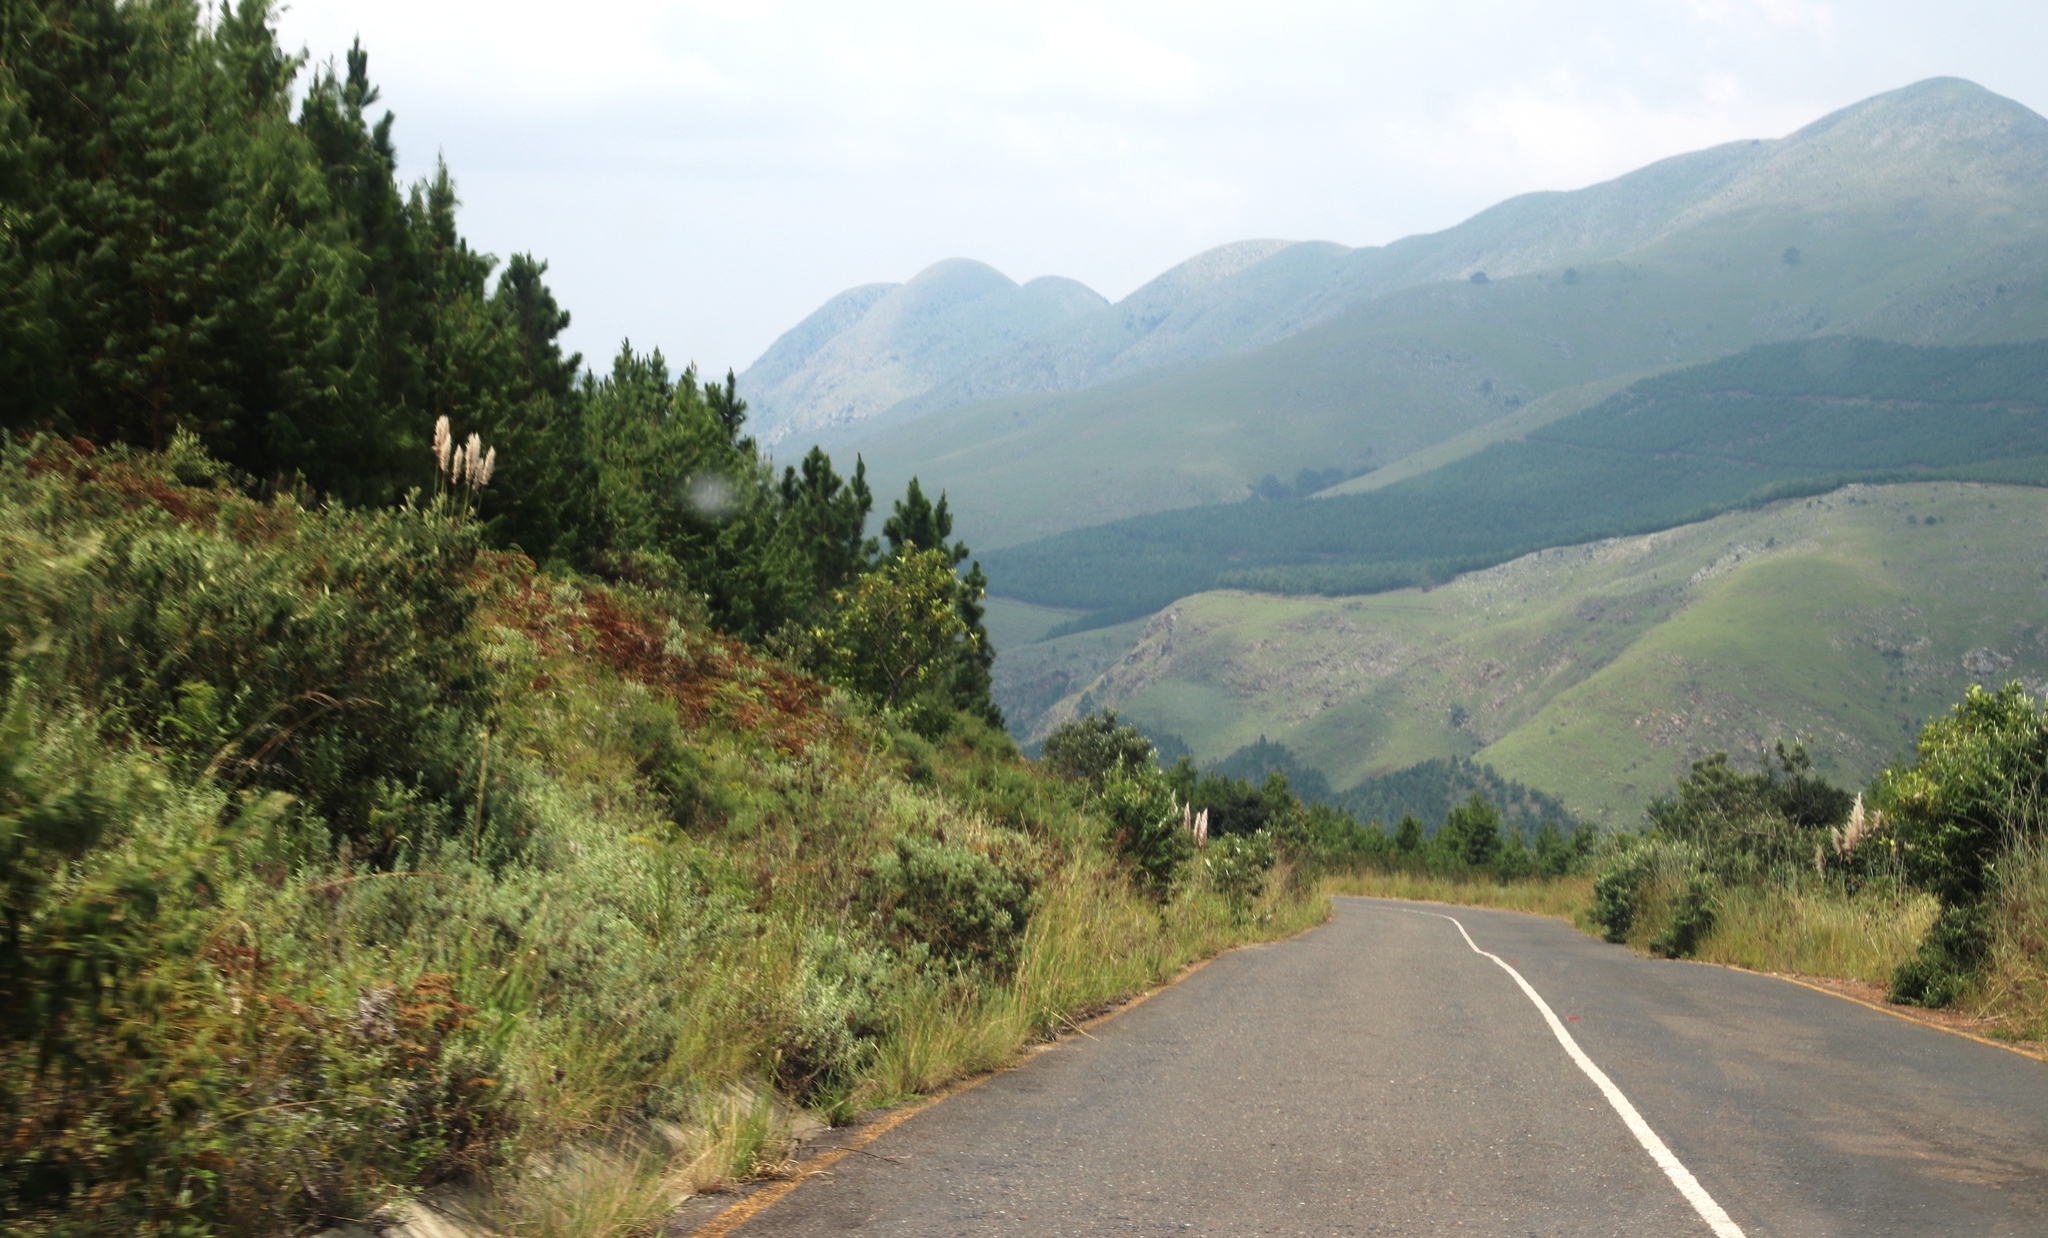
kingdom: Plantae
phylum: Tracheophyta
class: Liliopsida
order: Poales
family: Poaceae
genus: Cortaderia
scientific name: Cortaderia selloana
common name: Uruguayan pampas grass
